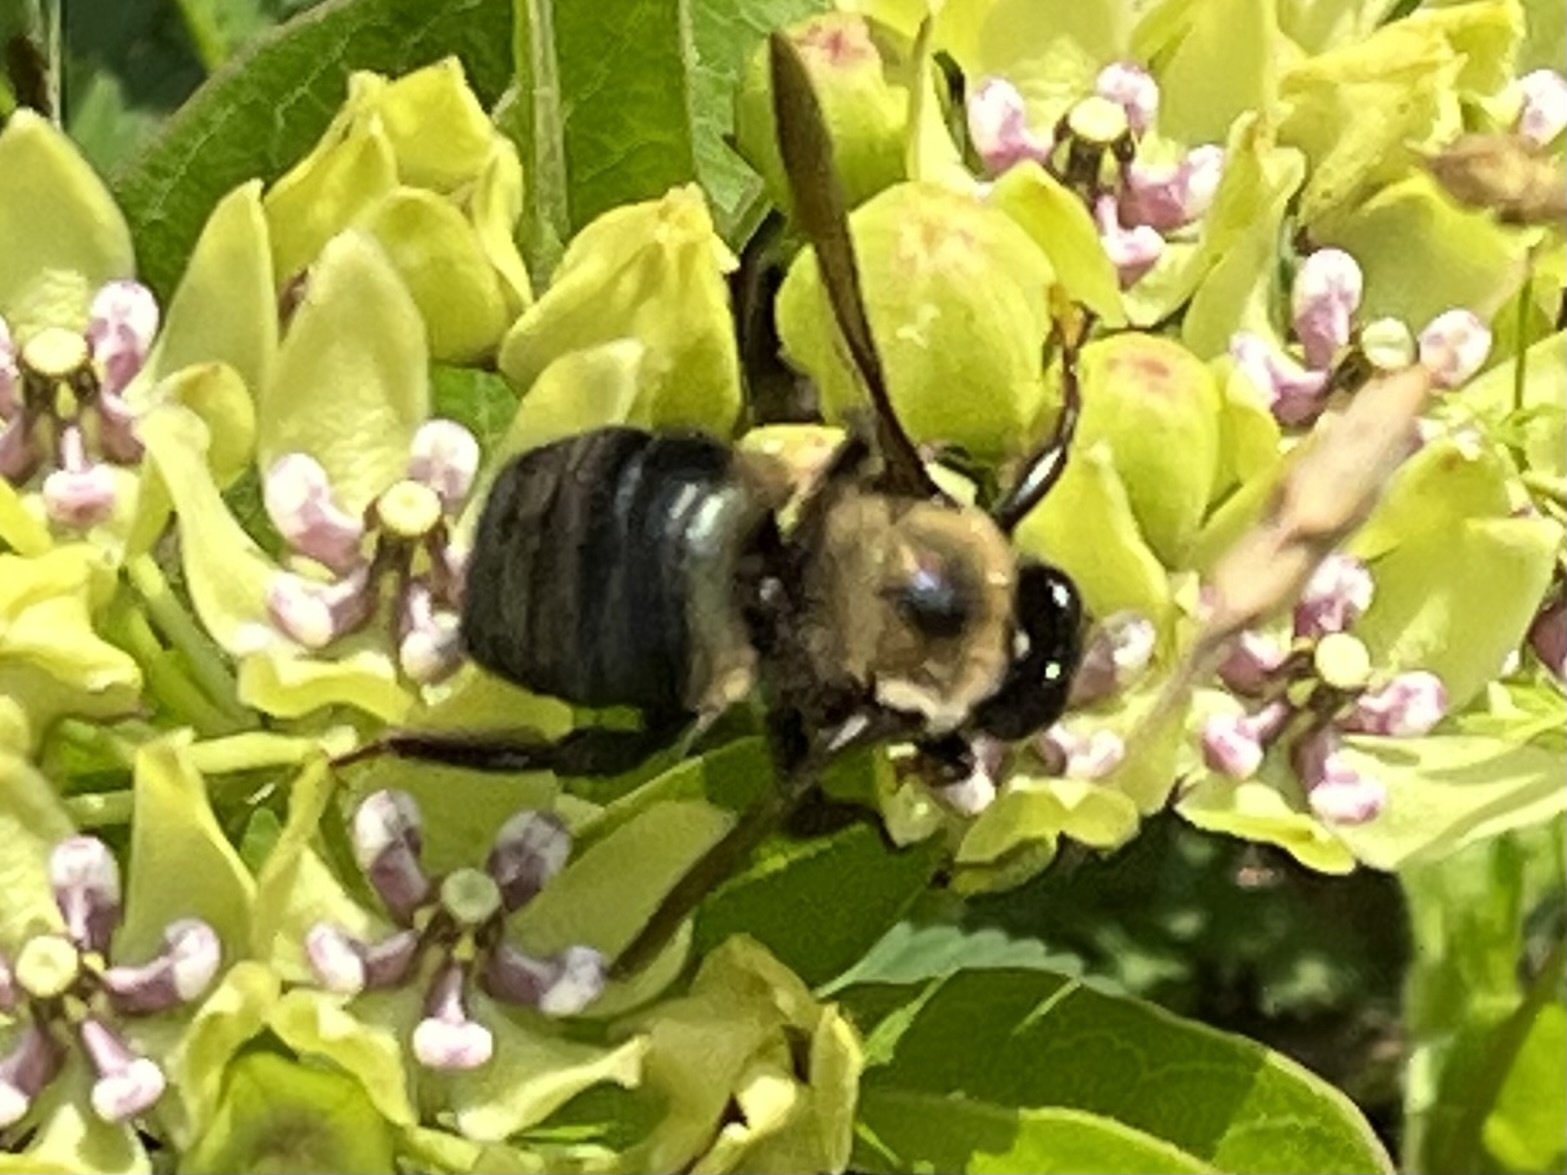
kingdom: Animalia
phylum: Arthropoda
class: Insecta
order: Hymenoptera
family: Apidae
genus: Xylocopa
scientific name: Xylocopa virginica
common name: Carpenter bee
